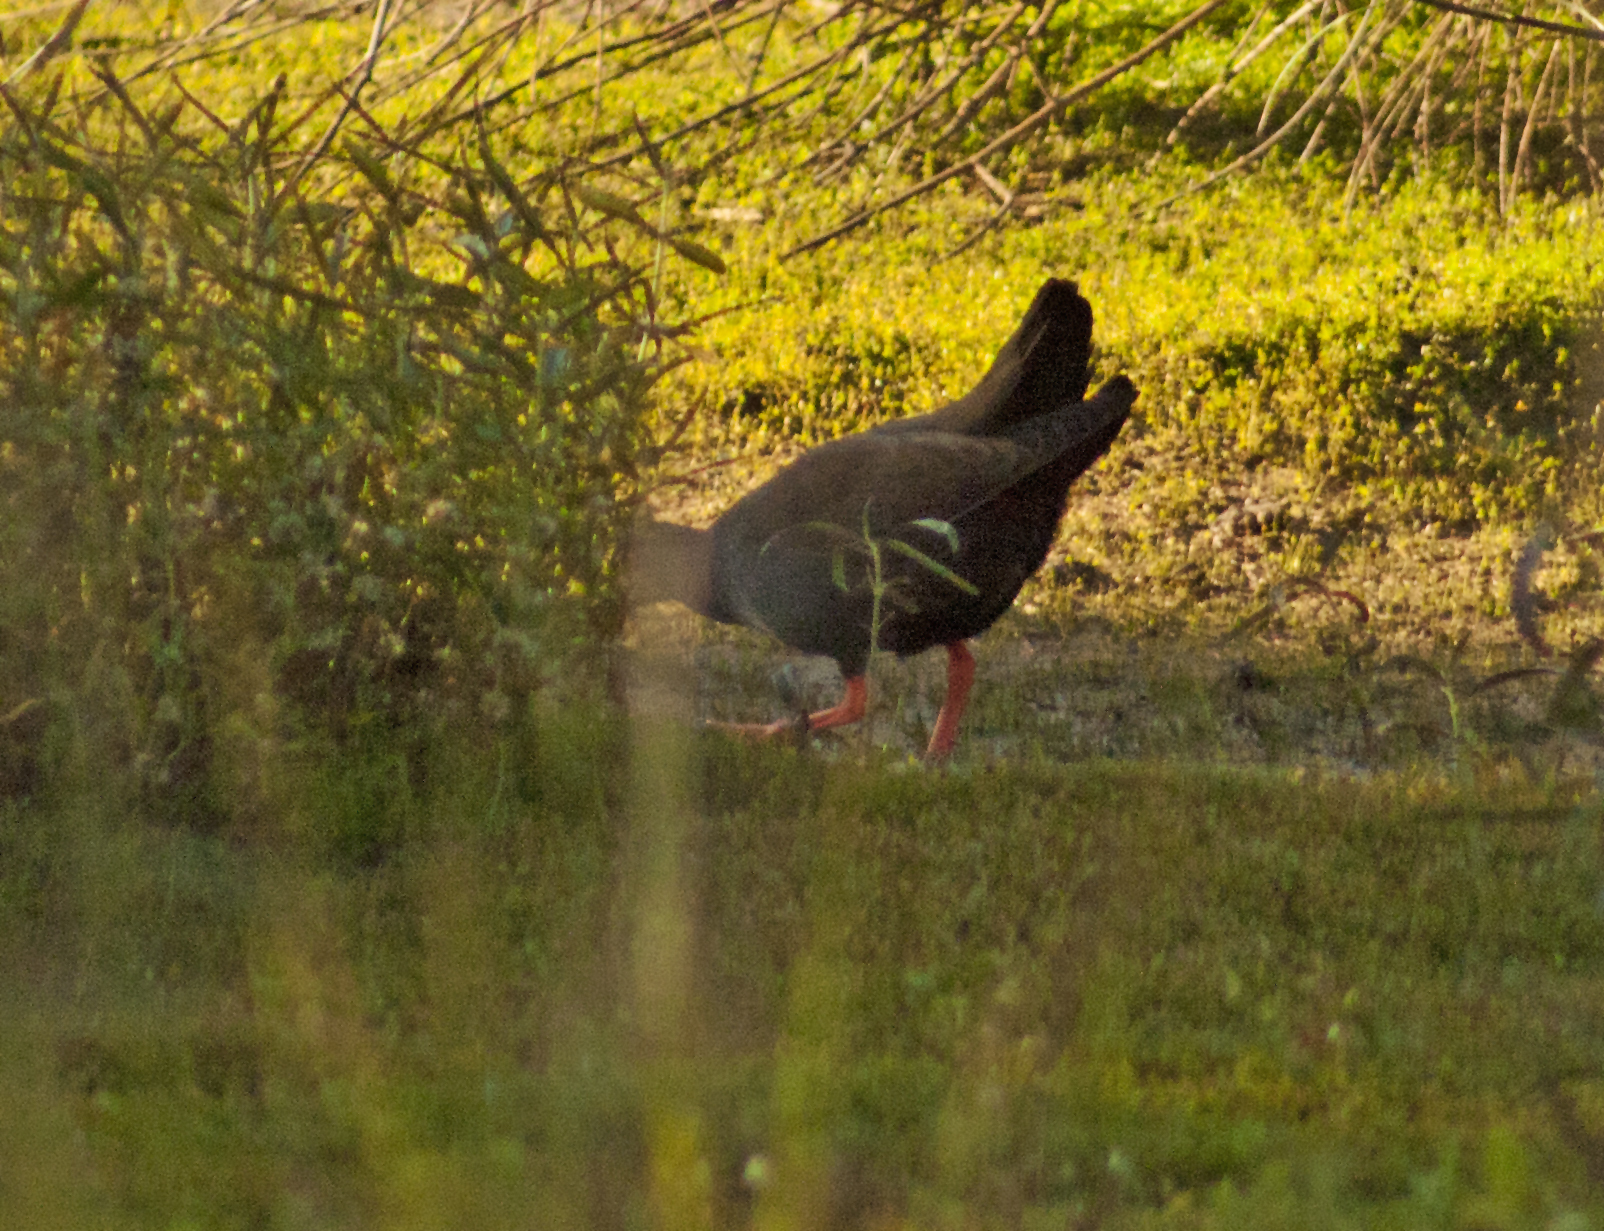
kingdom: Animalia
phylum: Chordata
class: Aves
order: Gruiformes
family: Rallidae
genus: Gallinula
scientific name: Gallinula ventralis
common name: Black-tailed nativehen
